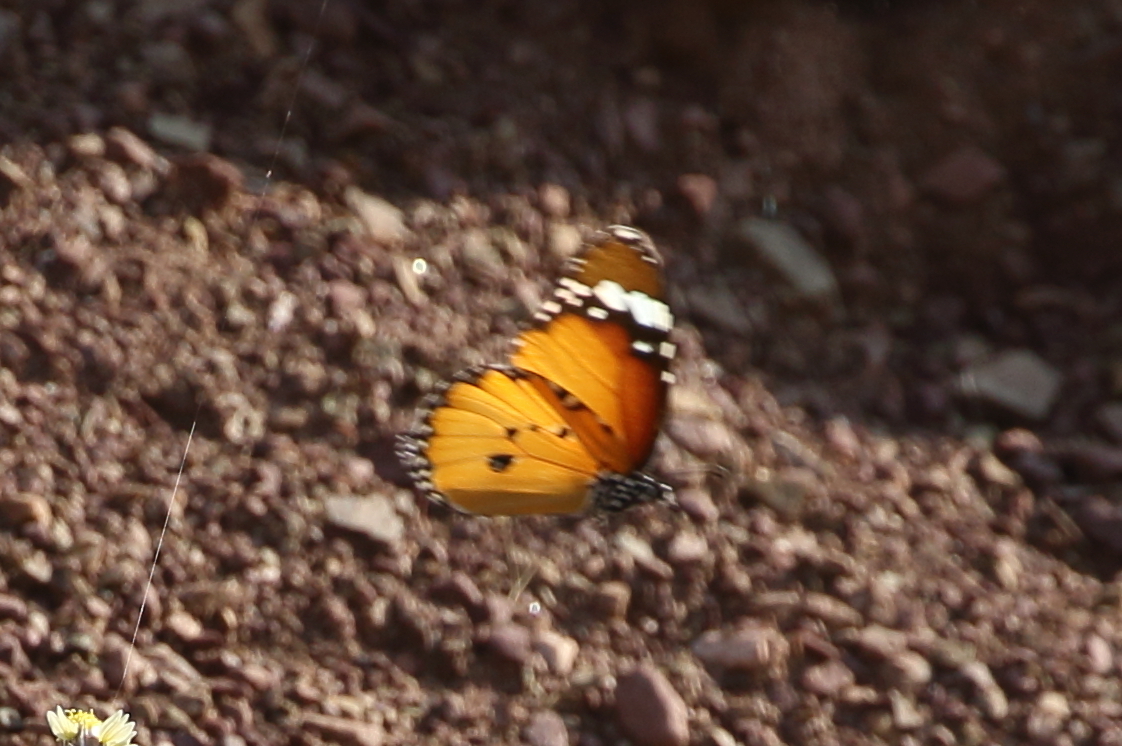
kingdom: Animalia
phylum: Arthropoda
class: Insecta
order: Lepidoptera
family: Nymphalidae
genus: Danaus
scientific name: Danaus chrysippus
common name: Plain tiger
